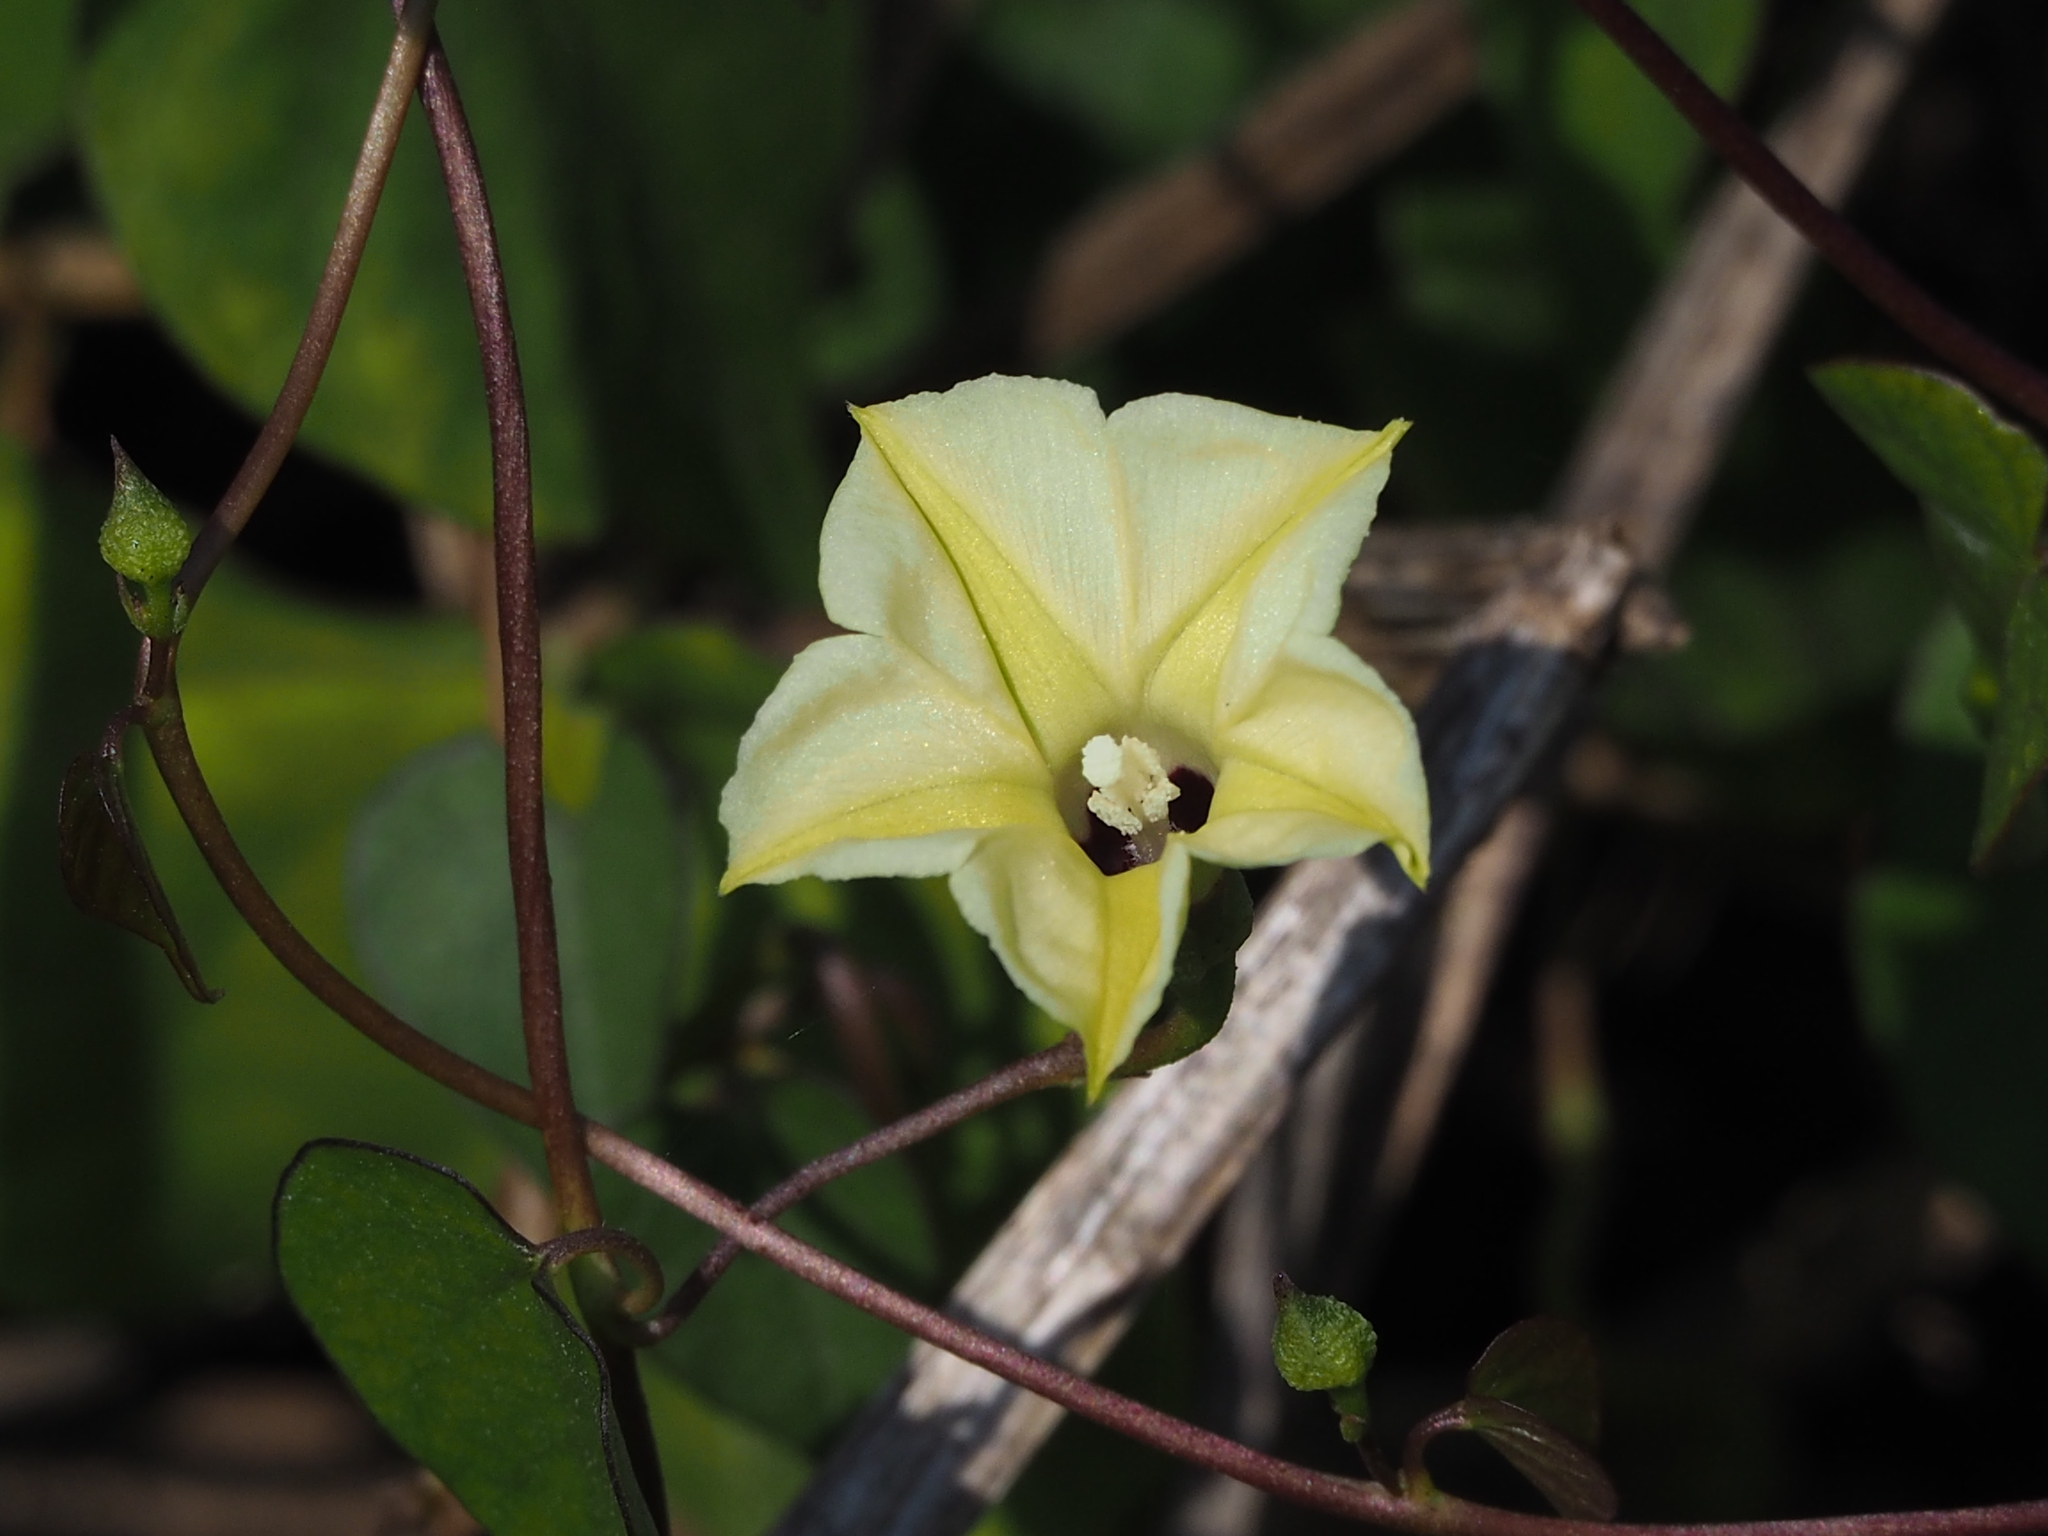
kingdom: Plantae
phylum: Tracheophyta
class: Magnoliopsida
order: Solanales
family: Convolvulaceae
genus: Ipomoea
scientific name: Ipomoea obscura
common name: Obscure morning-glory
